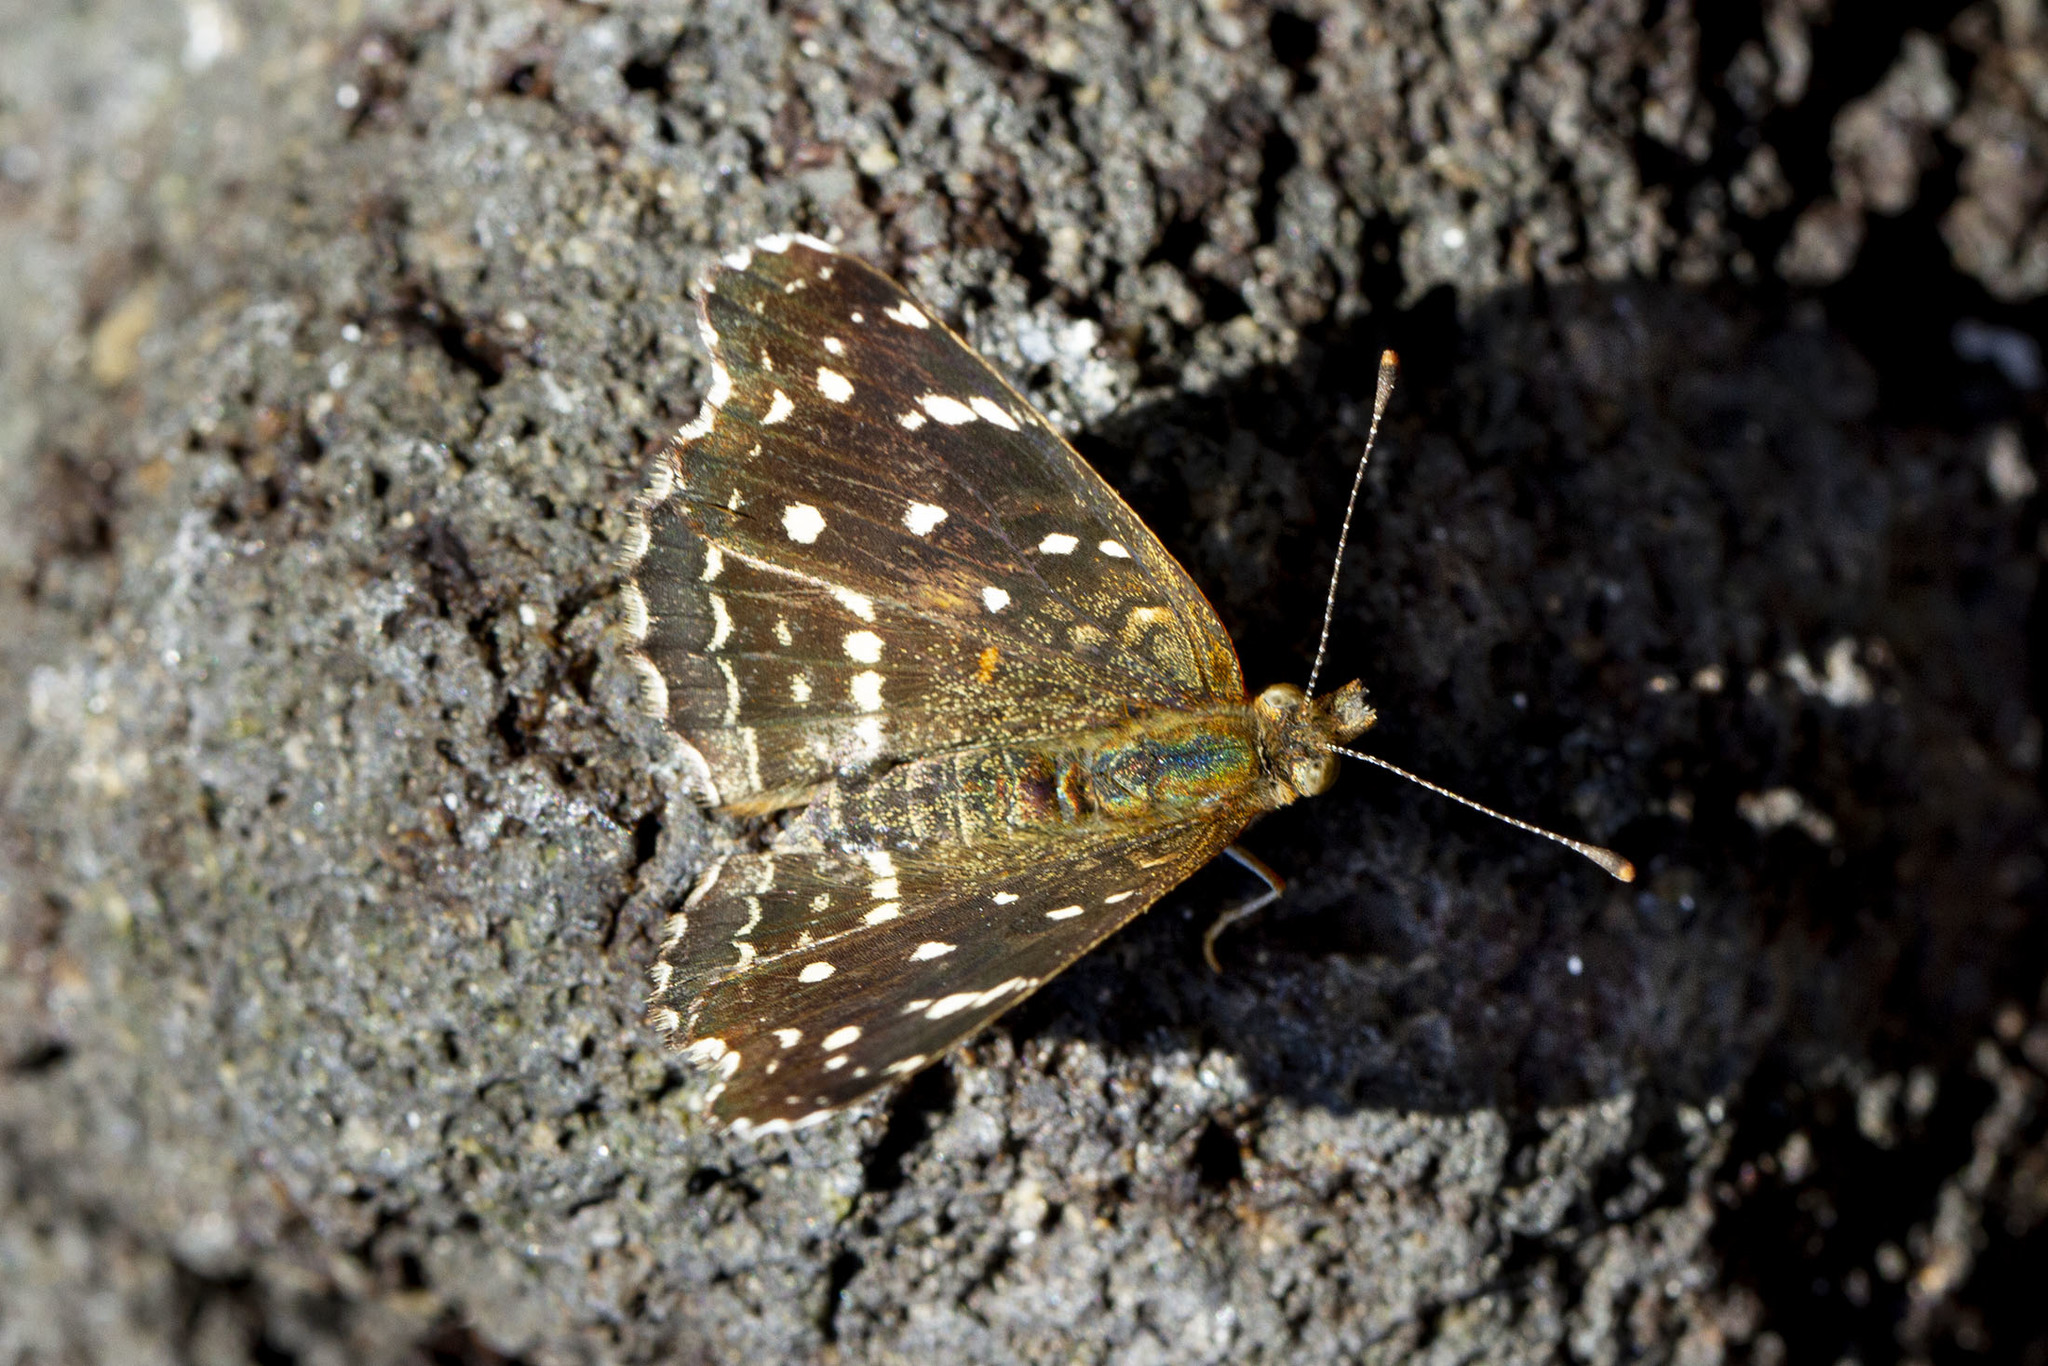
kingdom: Animalia
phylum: Arthropoda
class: Insecta
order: Lepidoptera
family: Nymphalidae
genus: Anthanassa
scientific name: Anthanassa texana
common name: Texan crescent
